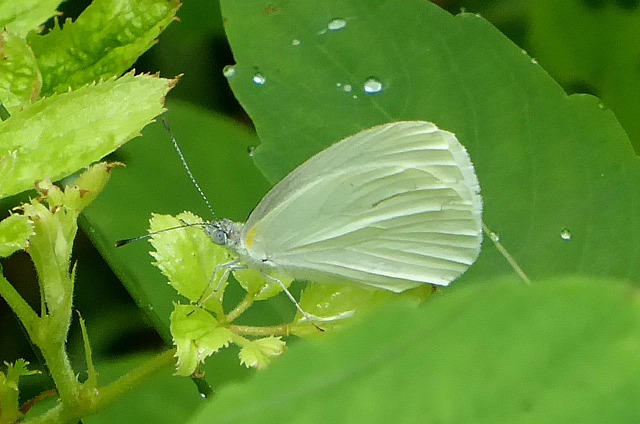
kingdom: Animalia
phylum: Arthropoda
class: Insecta
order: Lepidoptera
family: Pieridae
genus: Pieris
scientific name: Pieris oleracea
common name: Mustard white
